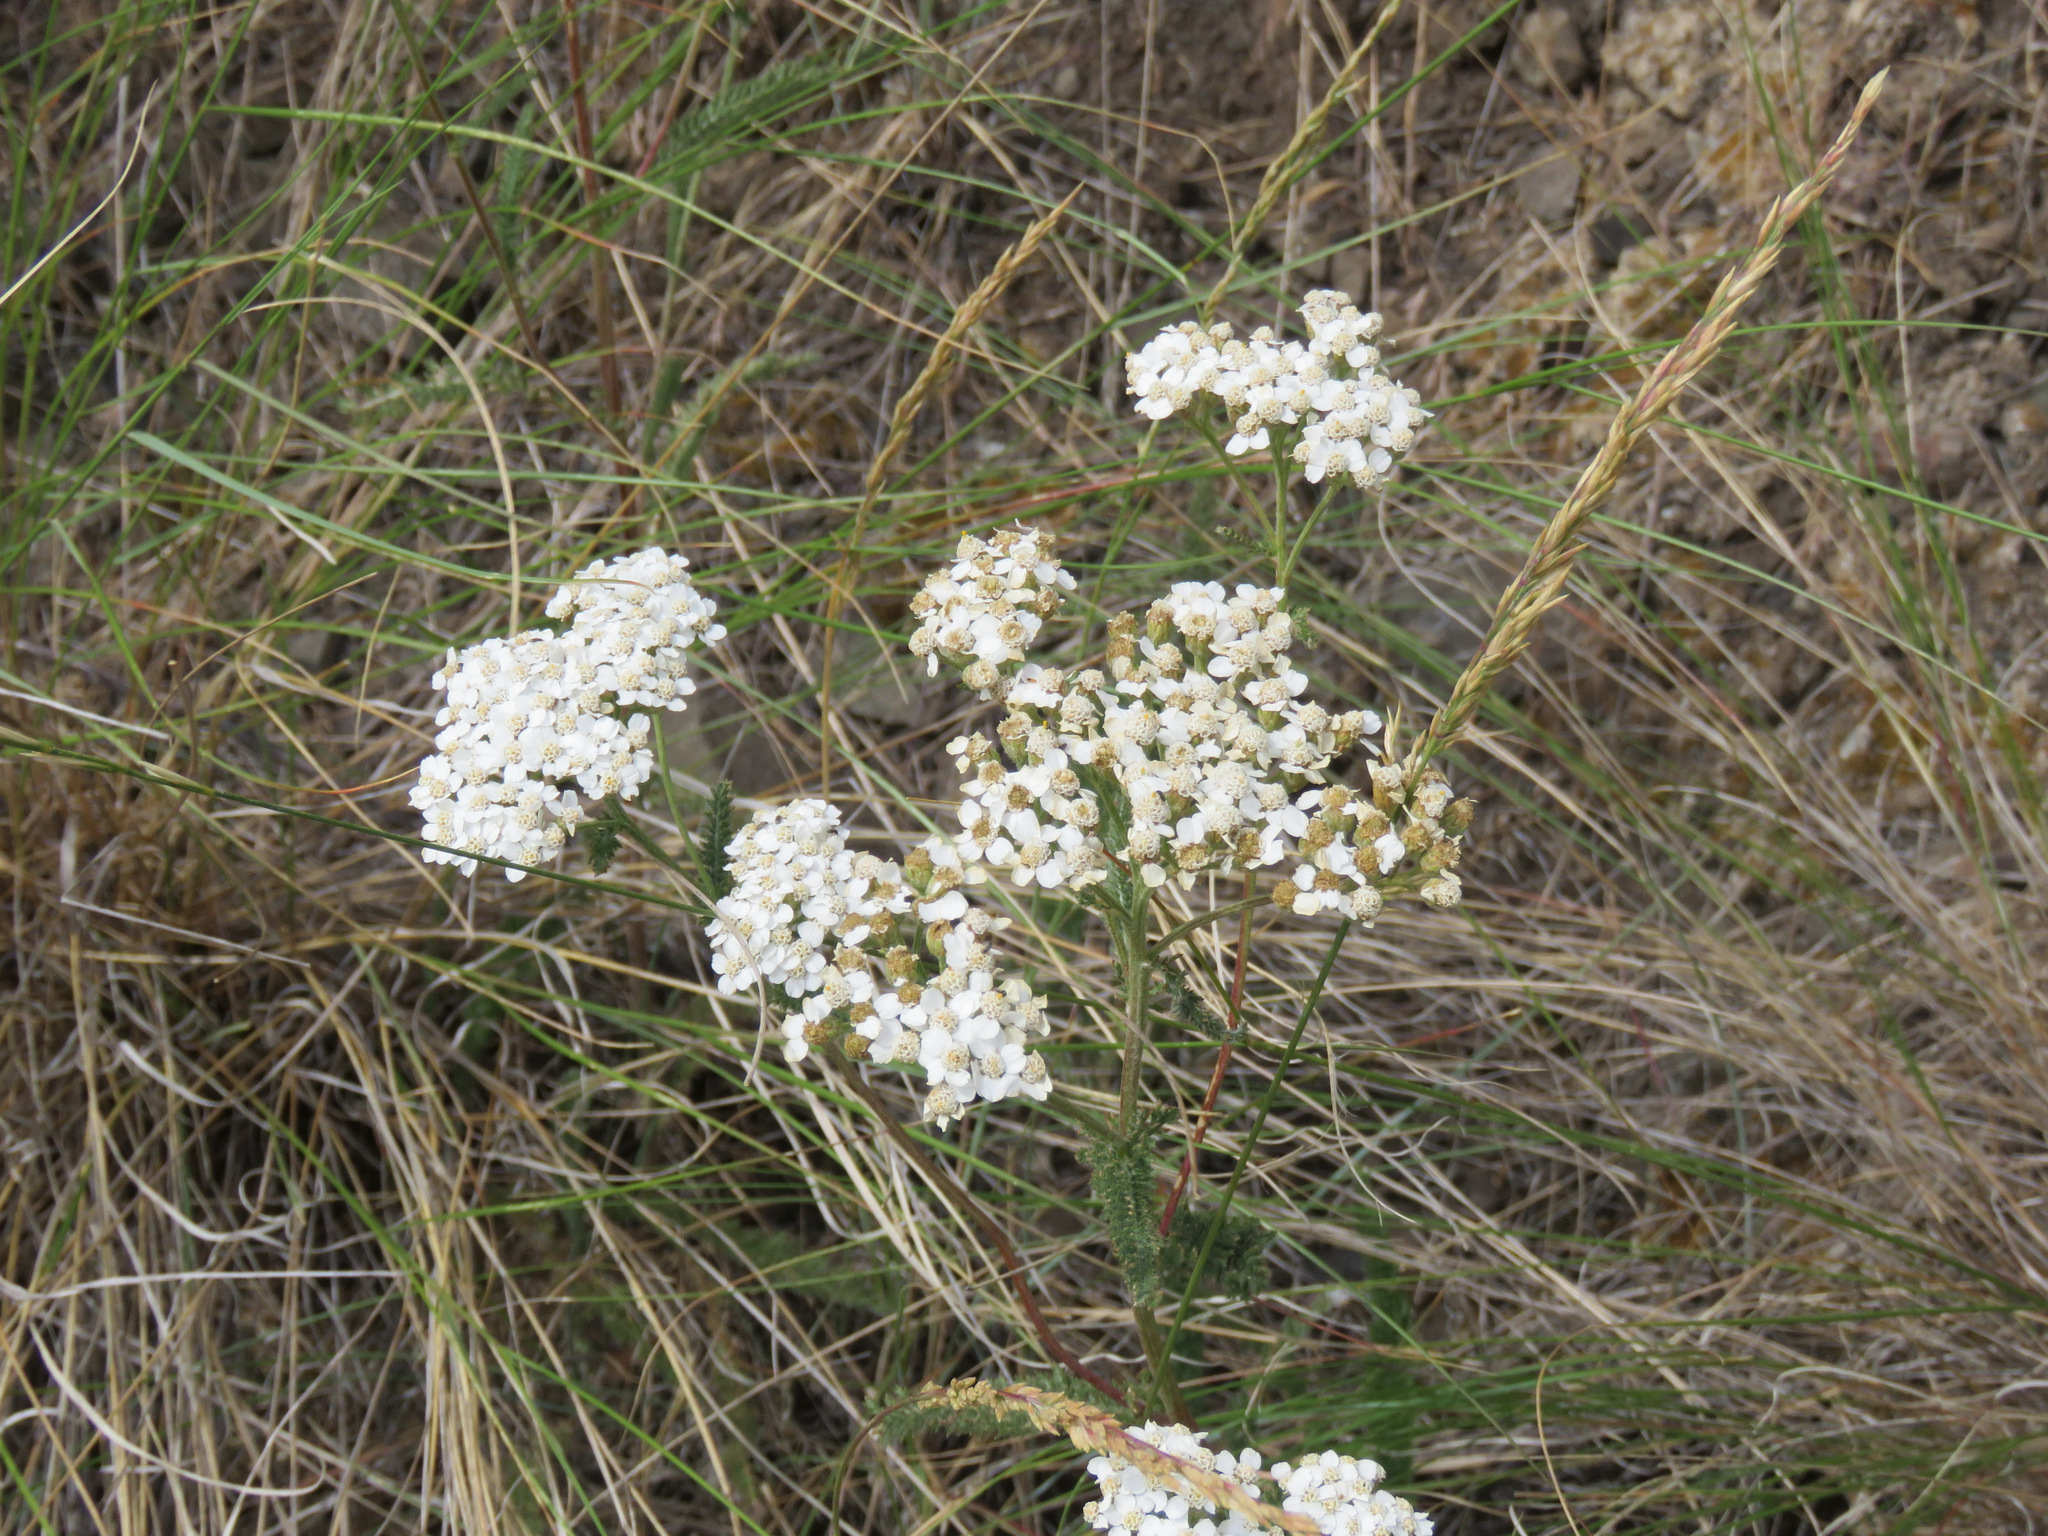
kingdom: Plantae
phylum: Tracheophyta
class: Magnoliopsida
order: Asterales
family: Asteraceae
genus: Achillea
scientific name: Achillea millefolium
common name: Yarrow
